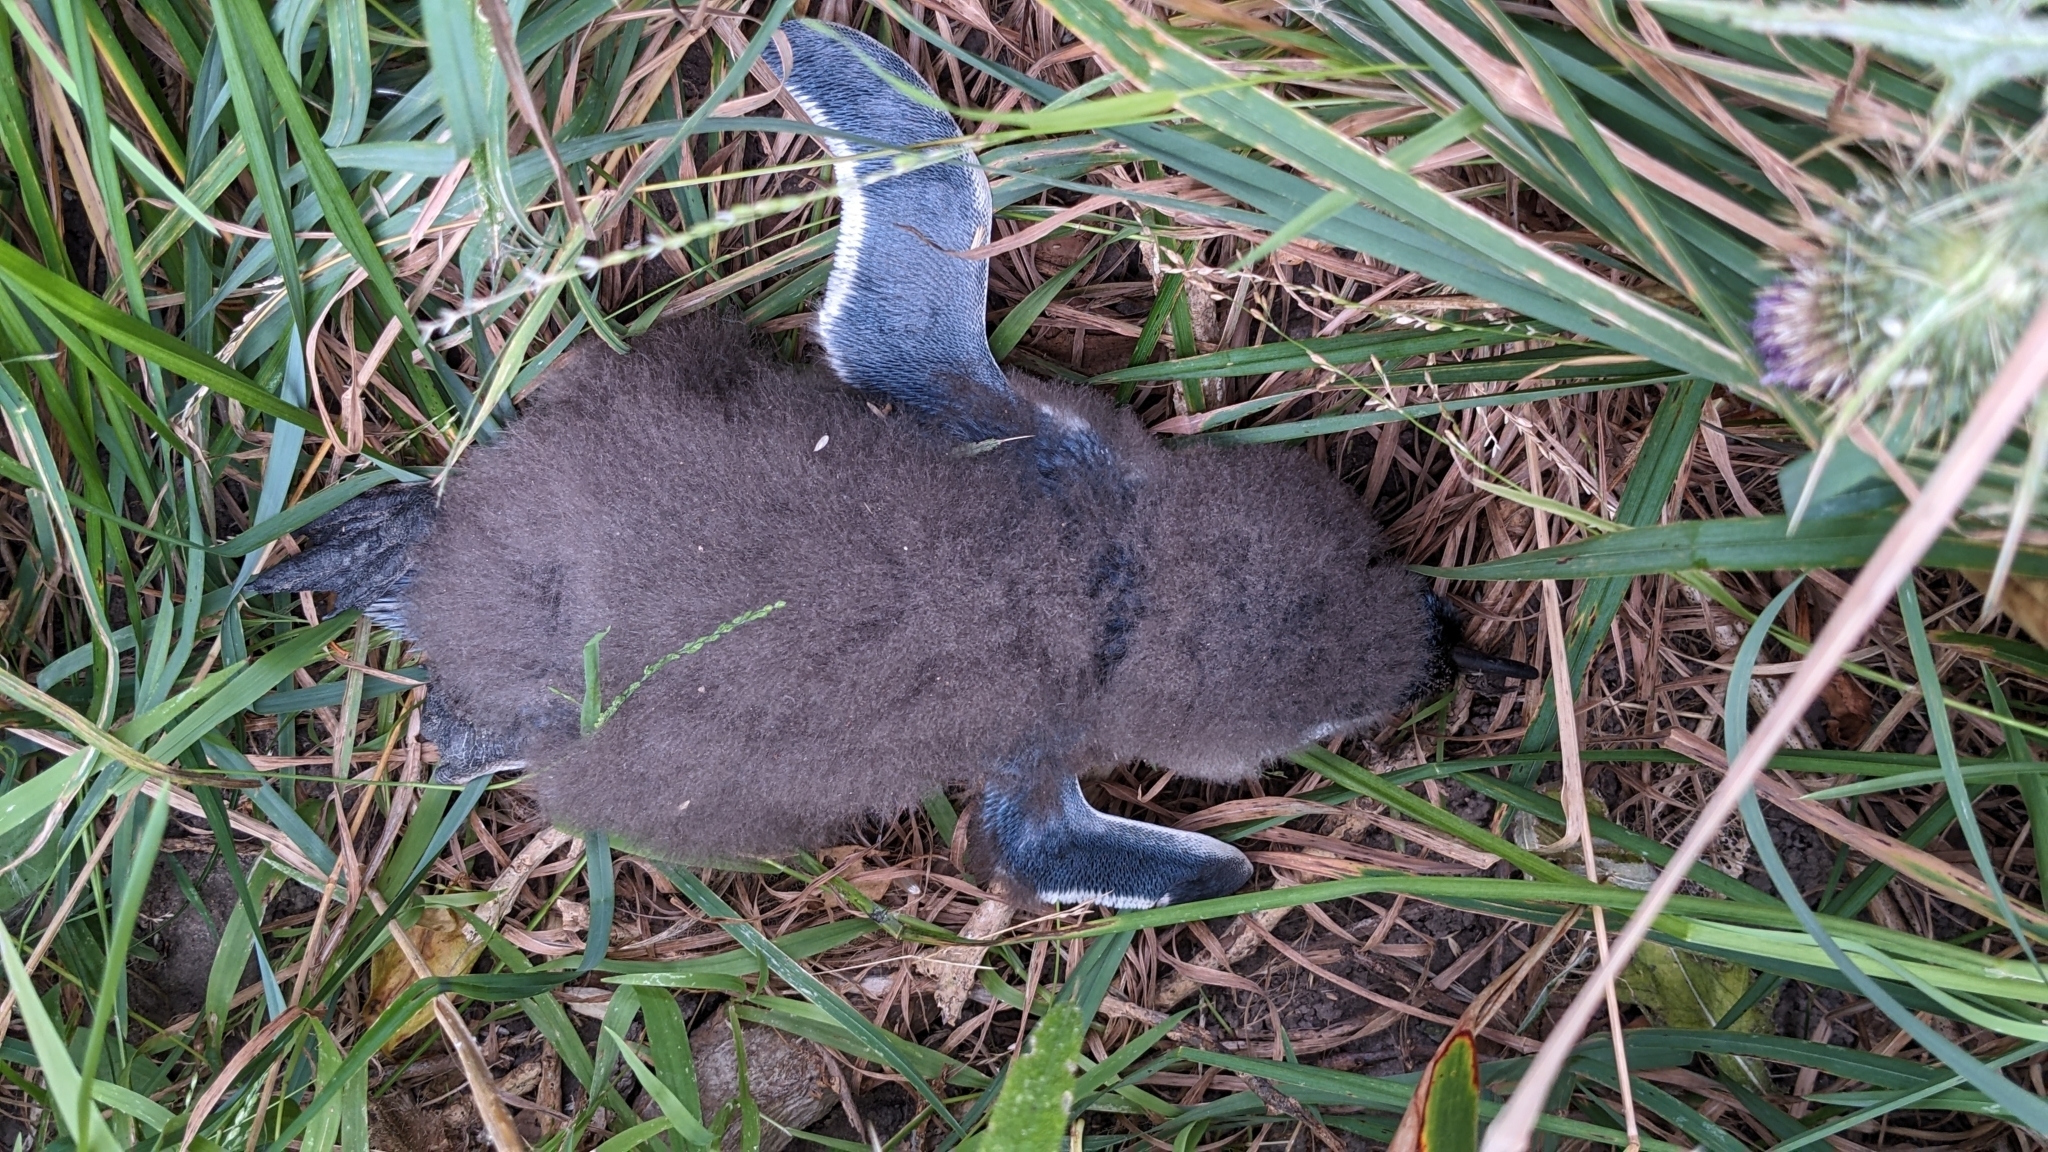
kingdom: Animalia
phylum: Chordata
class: Aves
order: Sphenisciformes
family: Spheniscidae
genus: Eudyptula
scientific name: Eudyptula minor
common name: Little penguin
